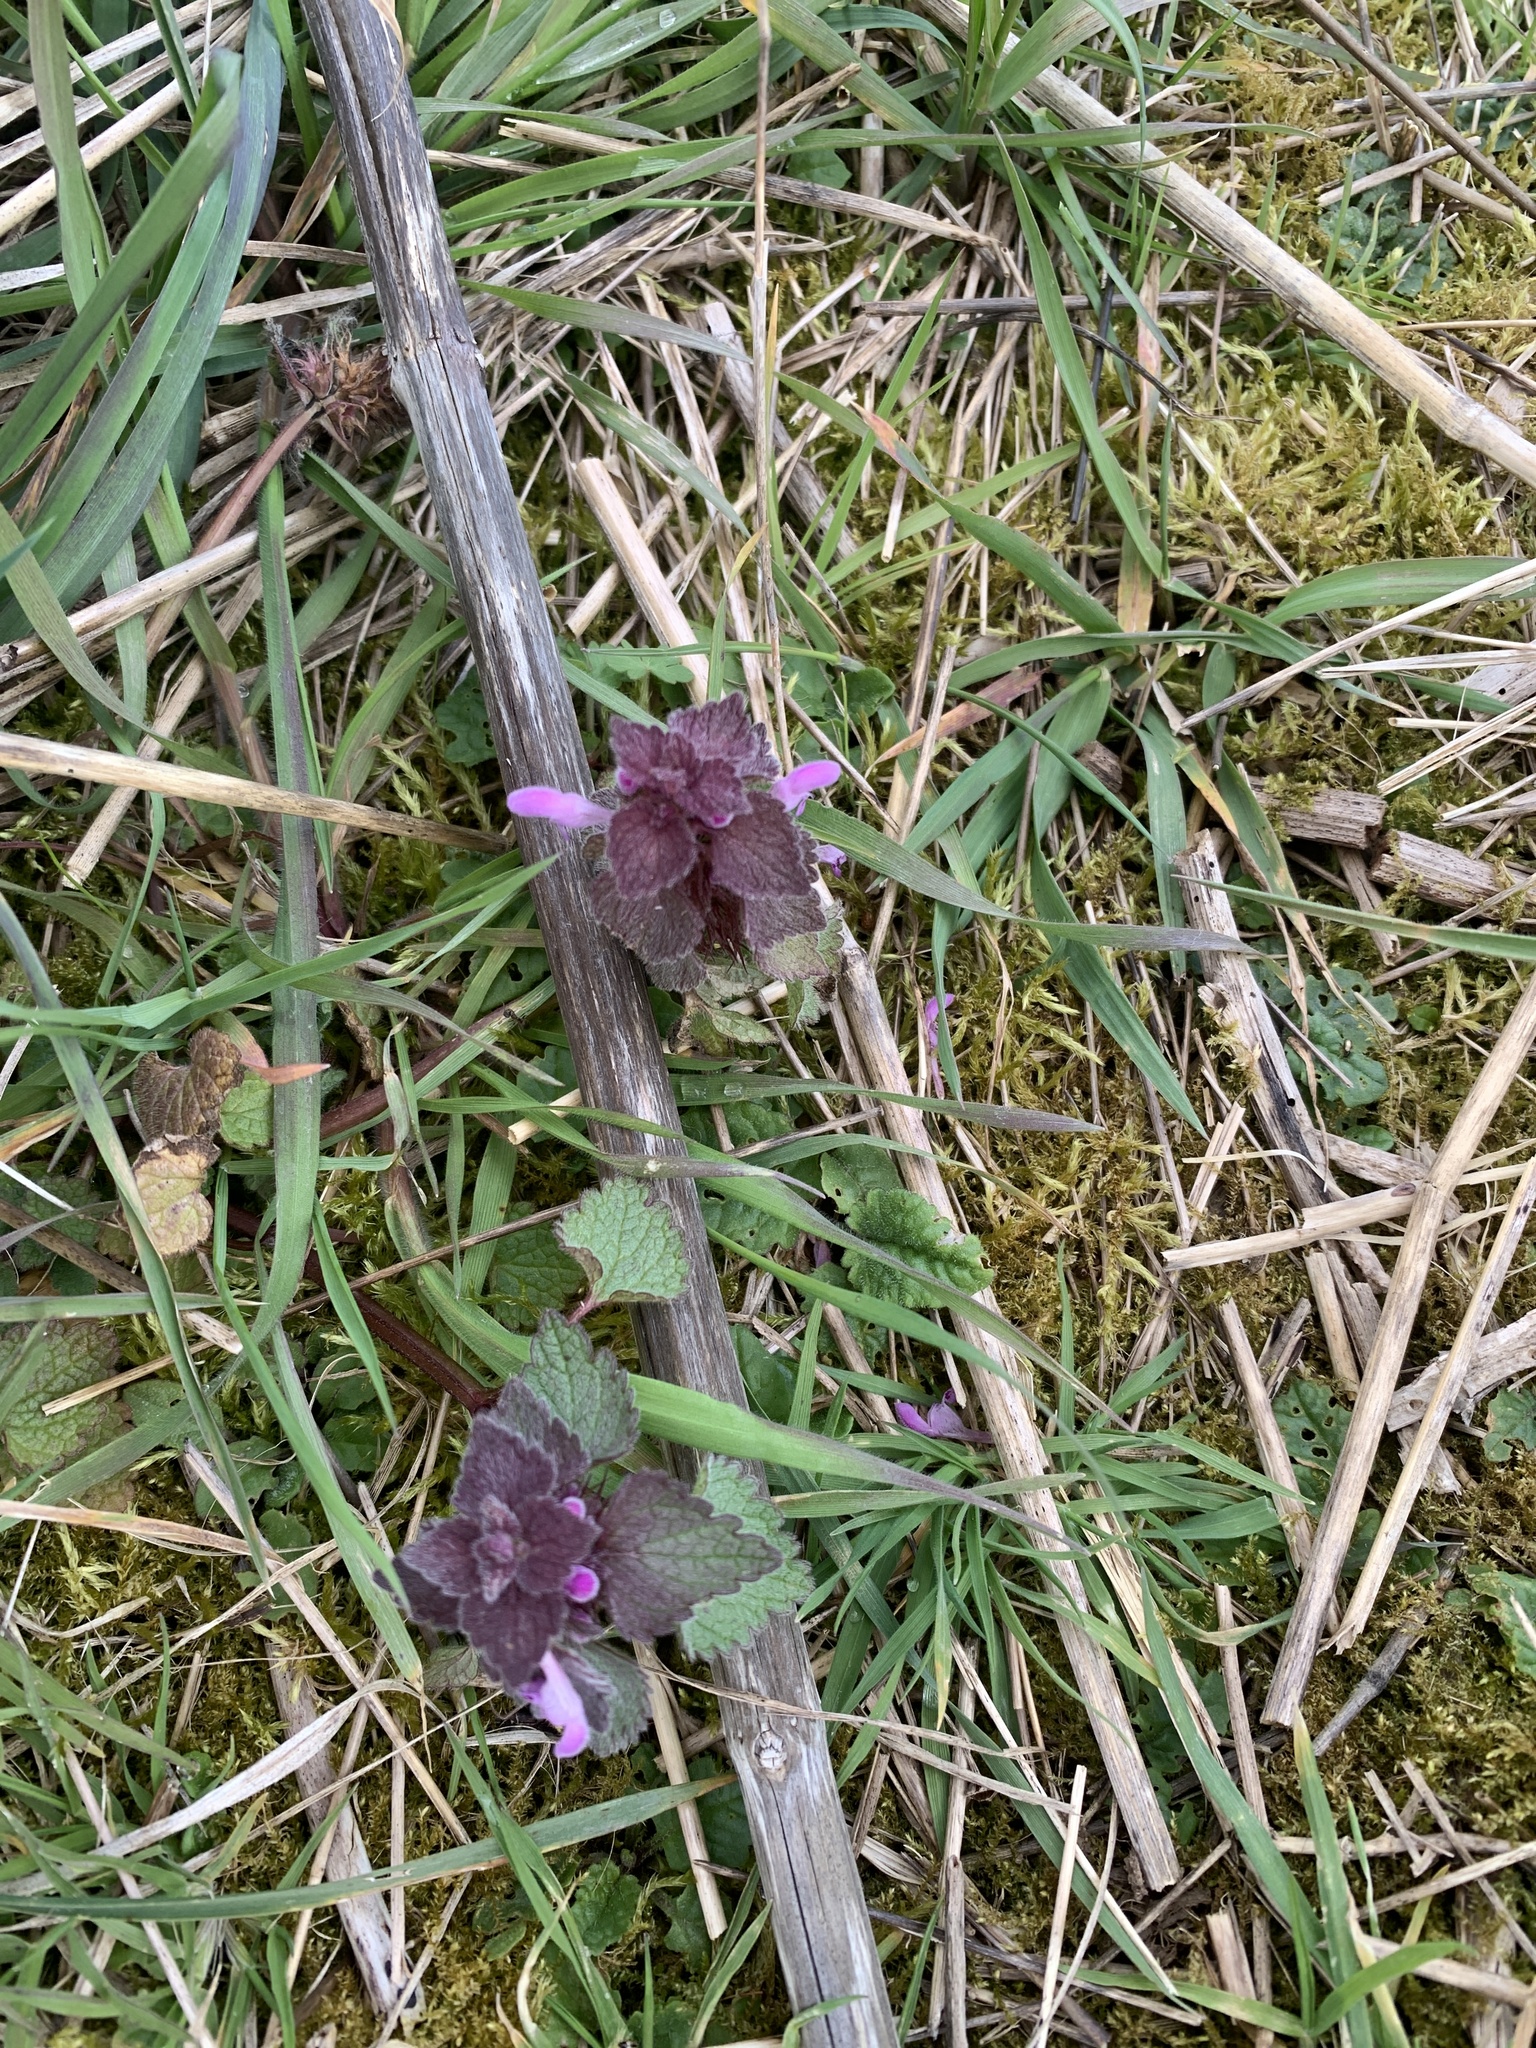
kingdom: Plantae
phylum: Tracheophyta
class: Magnoliopsida
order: Lamiales
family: Lamiaceae
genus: Lamium
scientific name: Lamium purpureum
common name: Red dead-nettle
